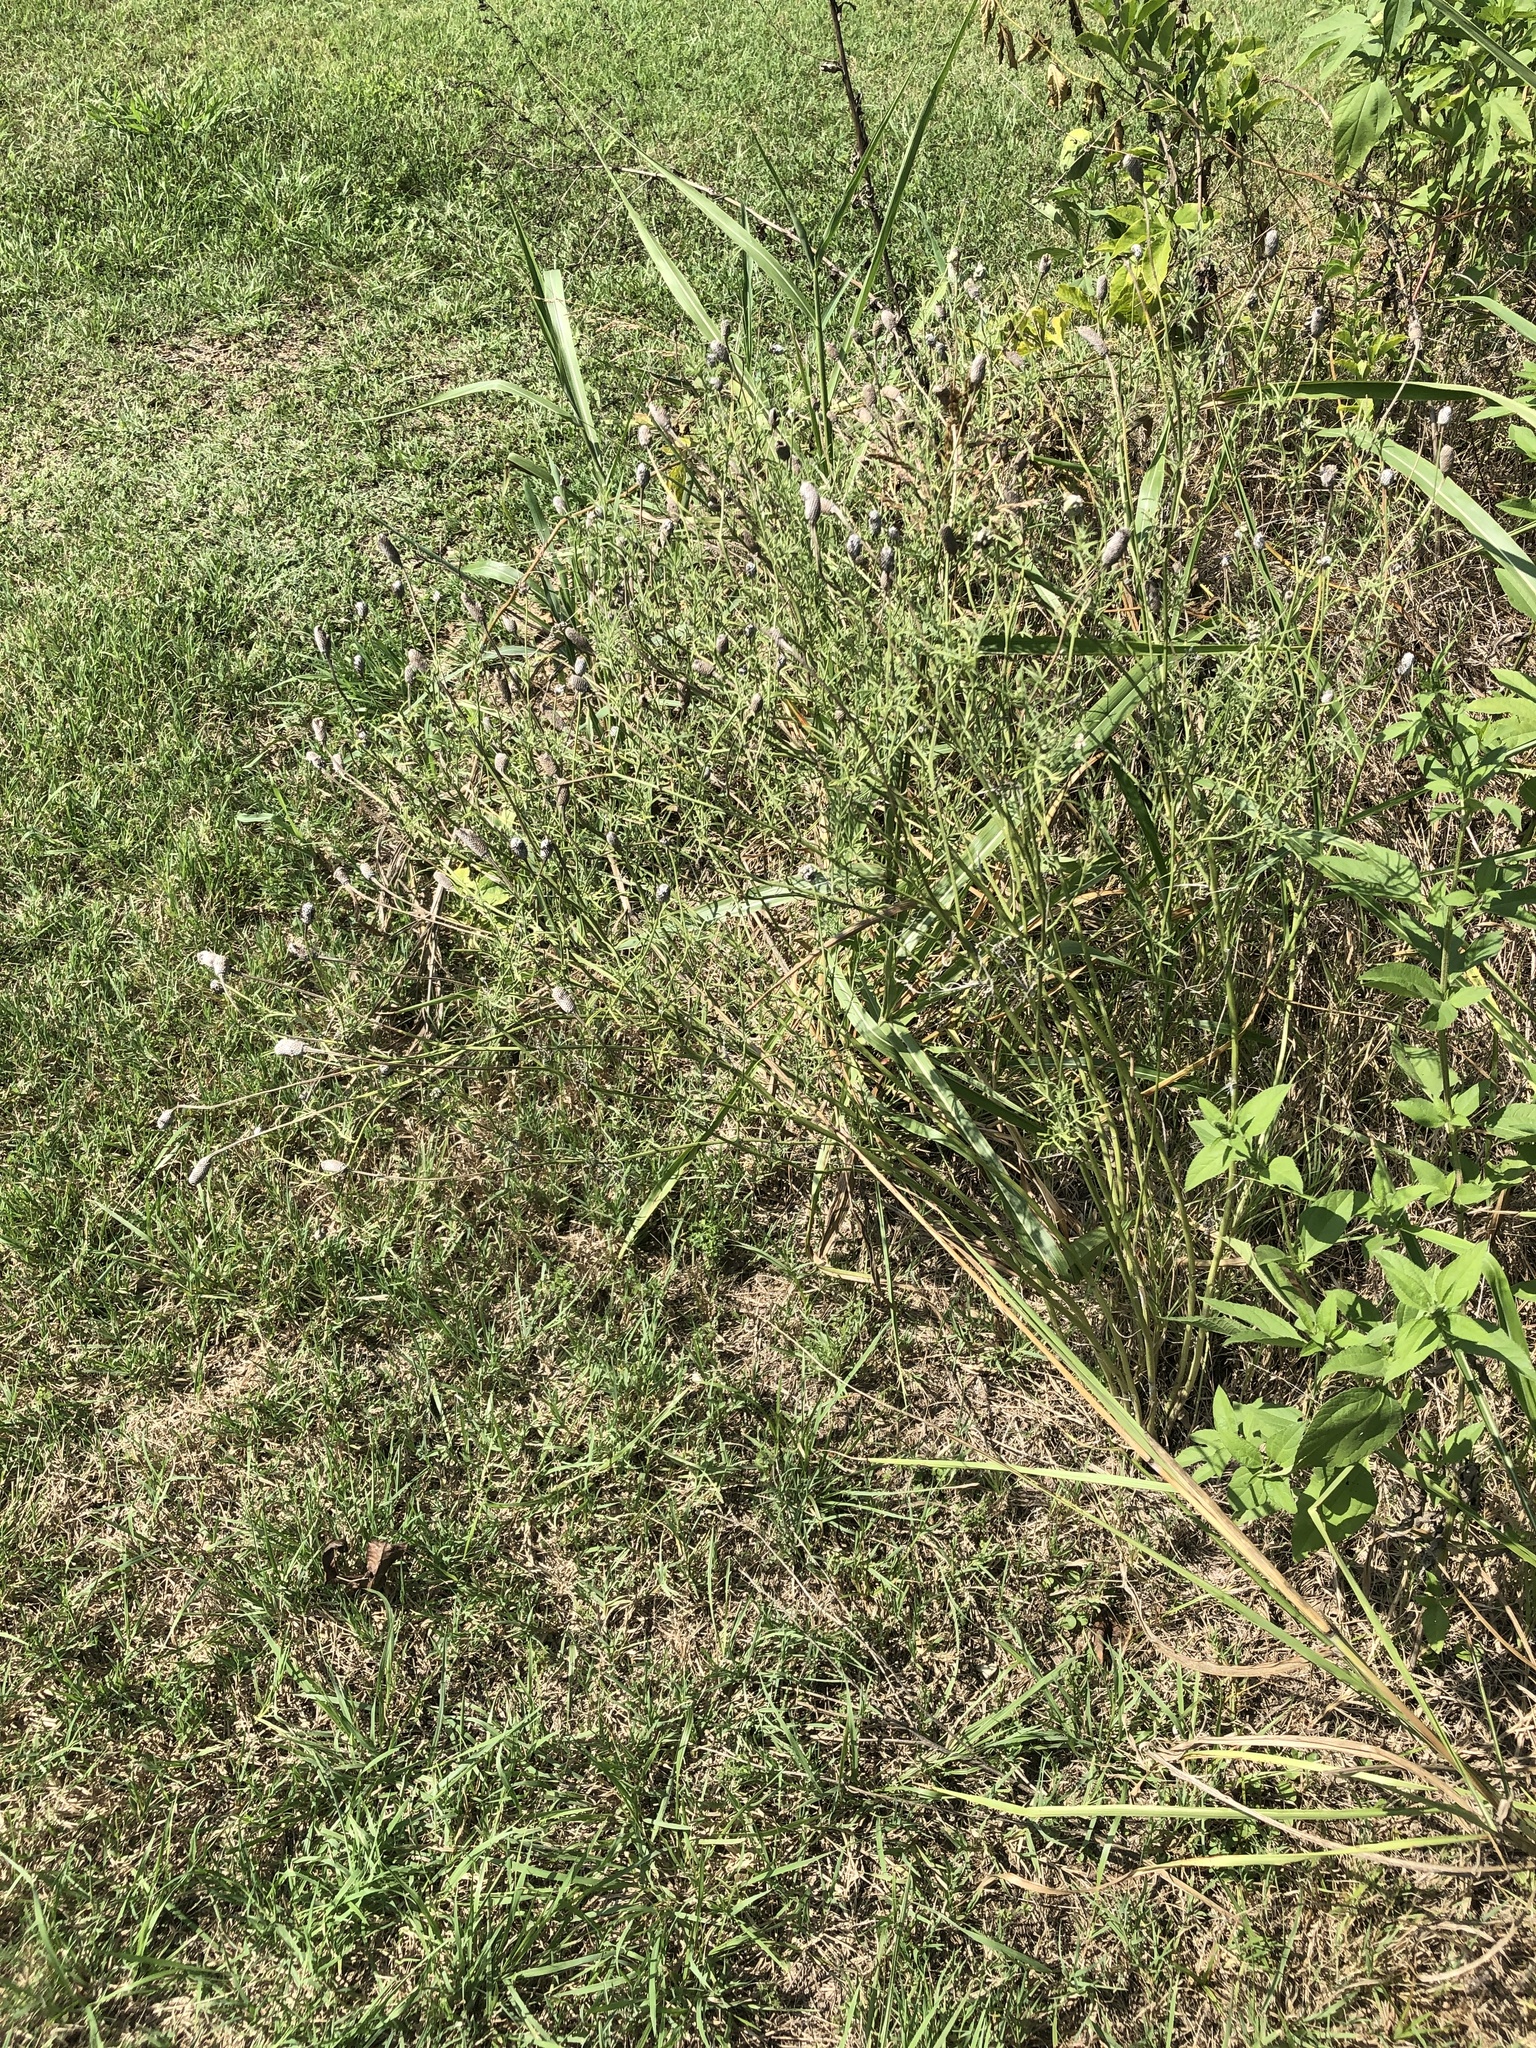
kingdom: Plantae
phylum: Tracheophyta
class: Magnoliopsida
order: Asterales
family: Asteraceae
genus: Ratibida
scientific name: Ratibida columnifera
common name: Prairie coneflower
